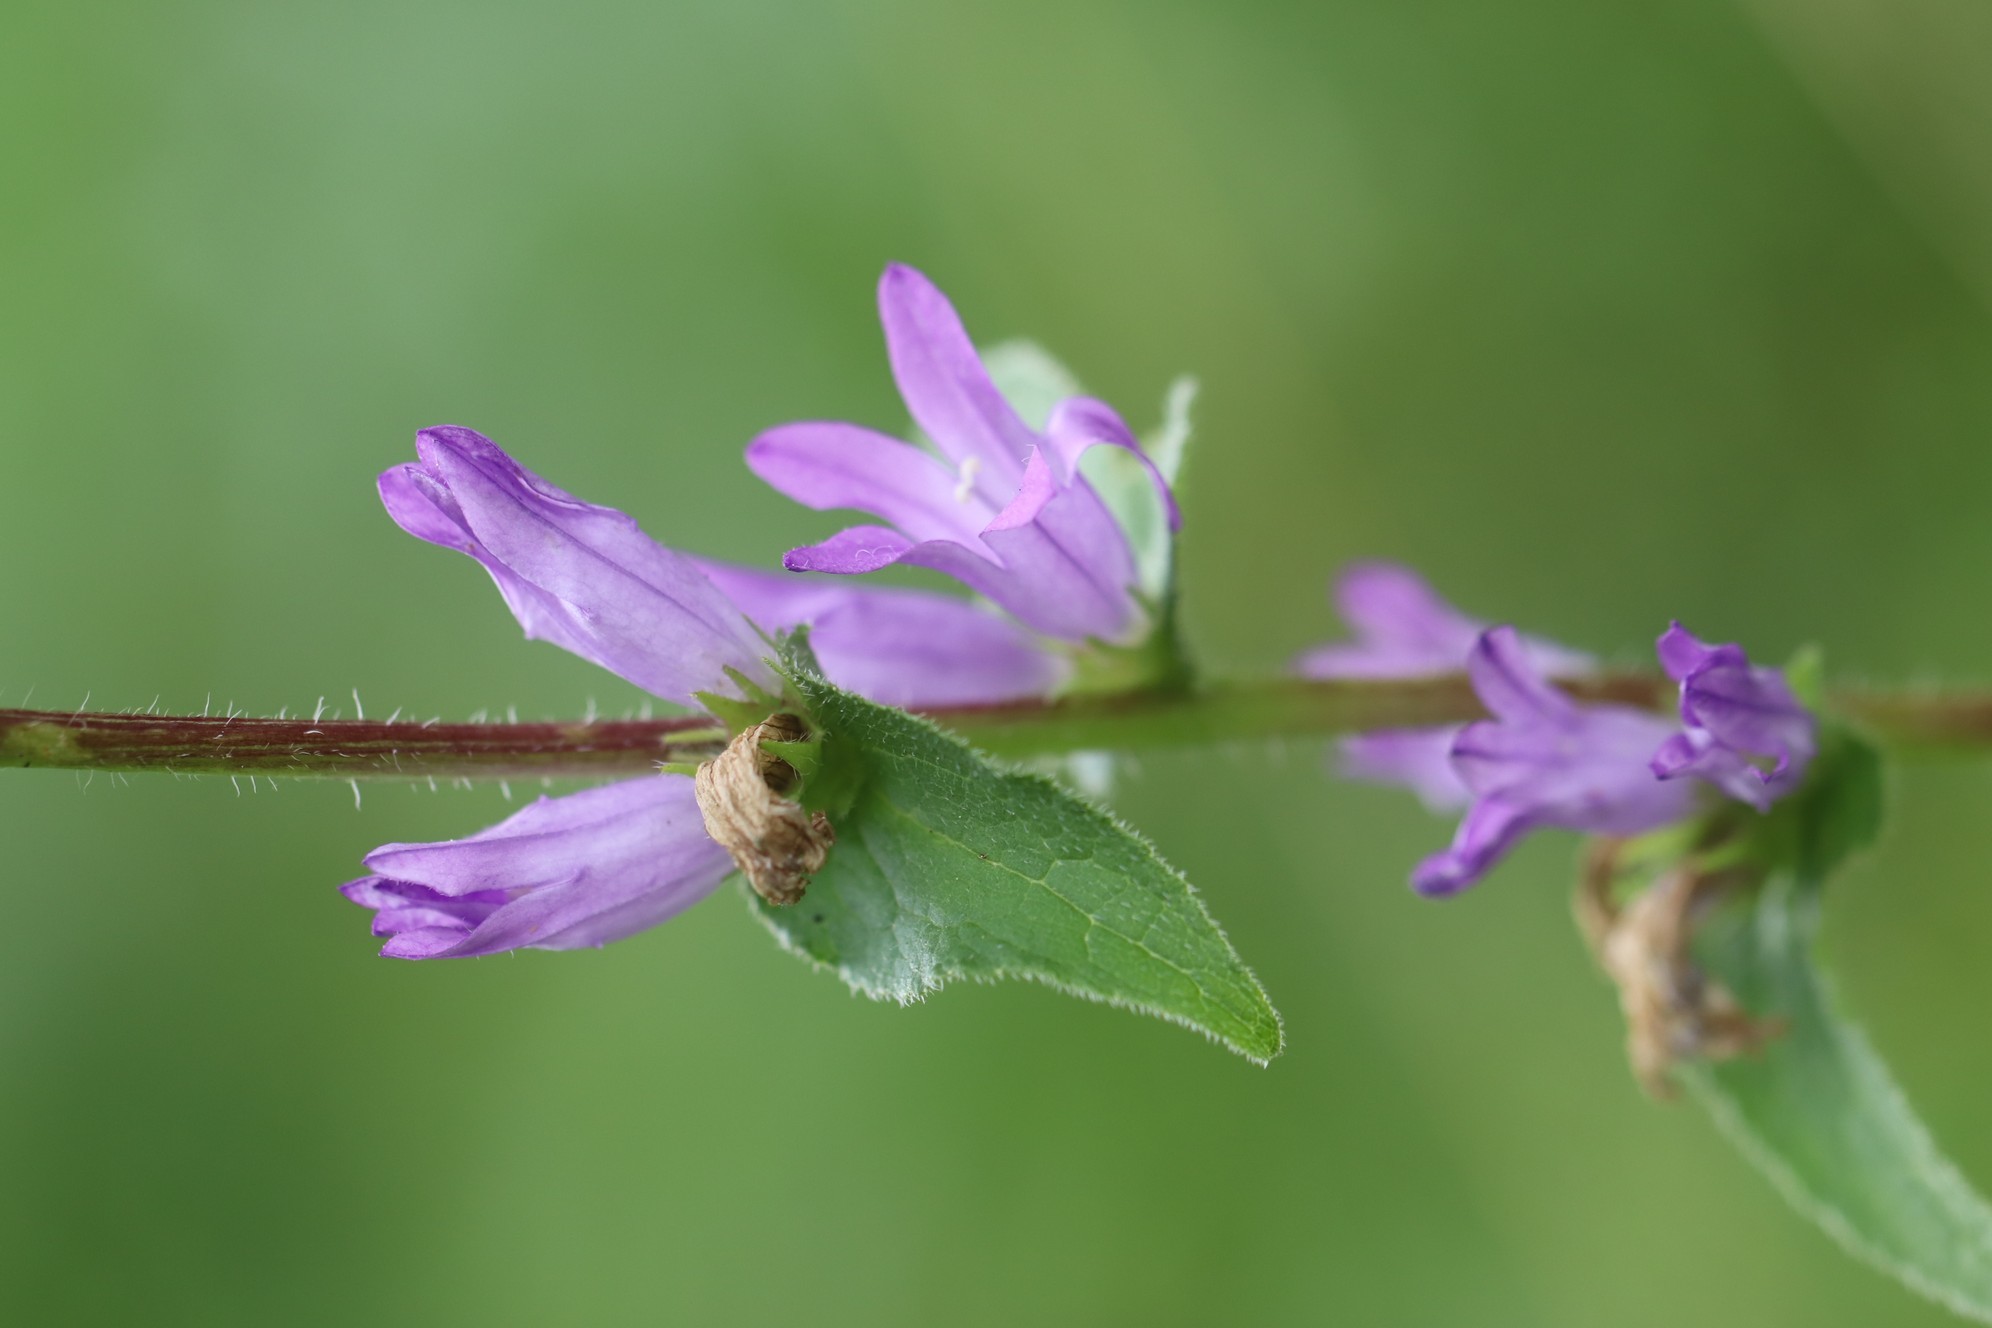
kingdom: Plantae
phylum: Tracheophyta
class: Magnoliopsida
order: Asterales
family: Campanulaceae
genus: Campanula
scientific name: Campanula glomerata
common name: Clustered bellflower
